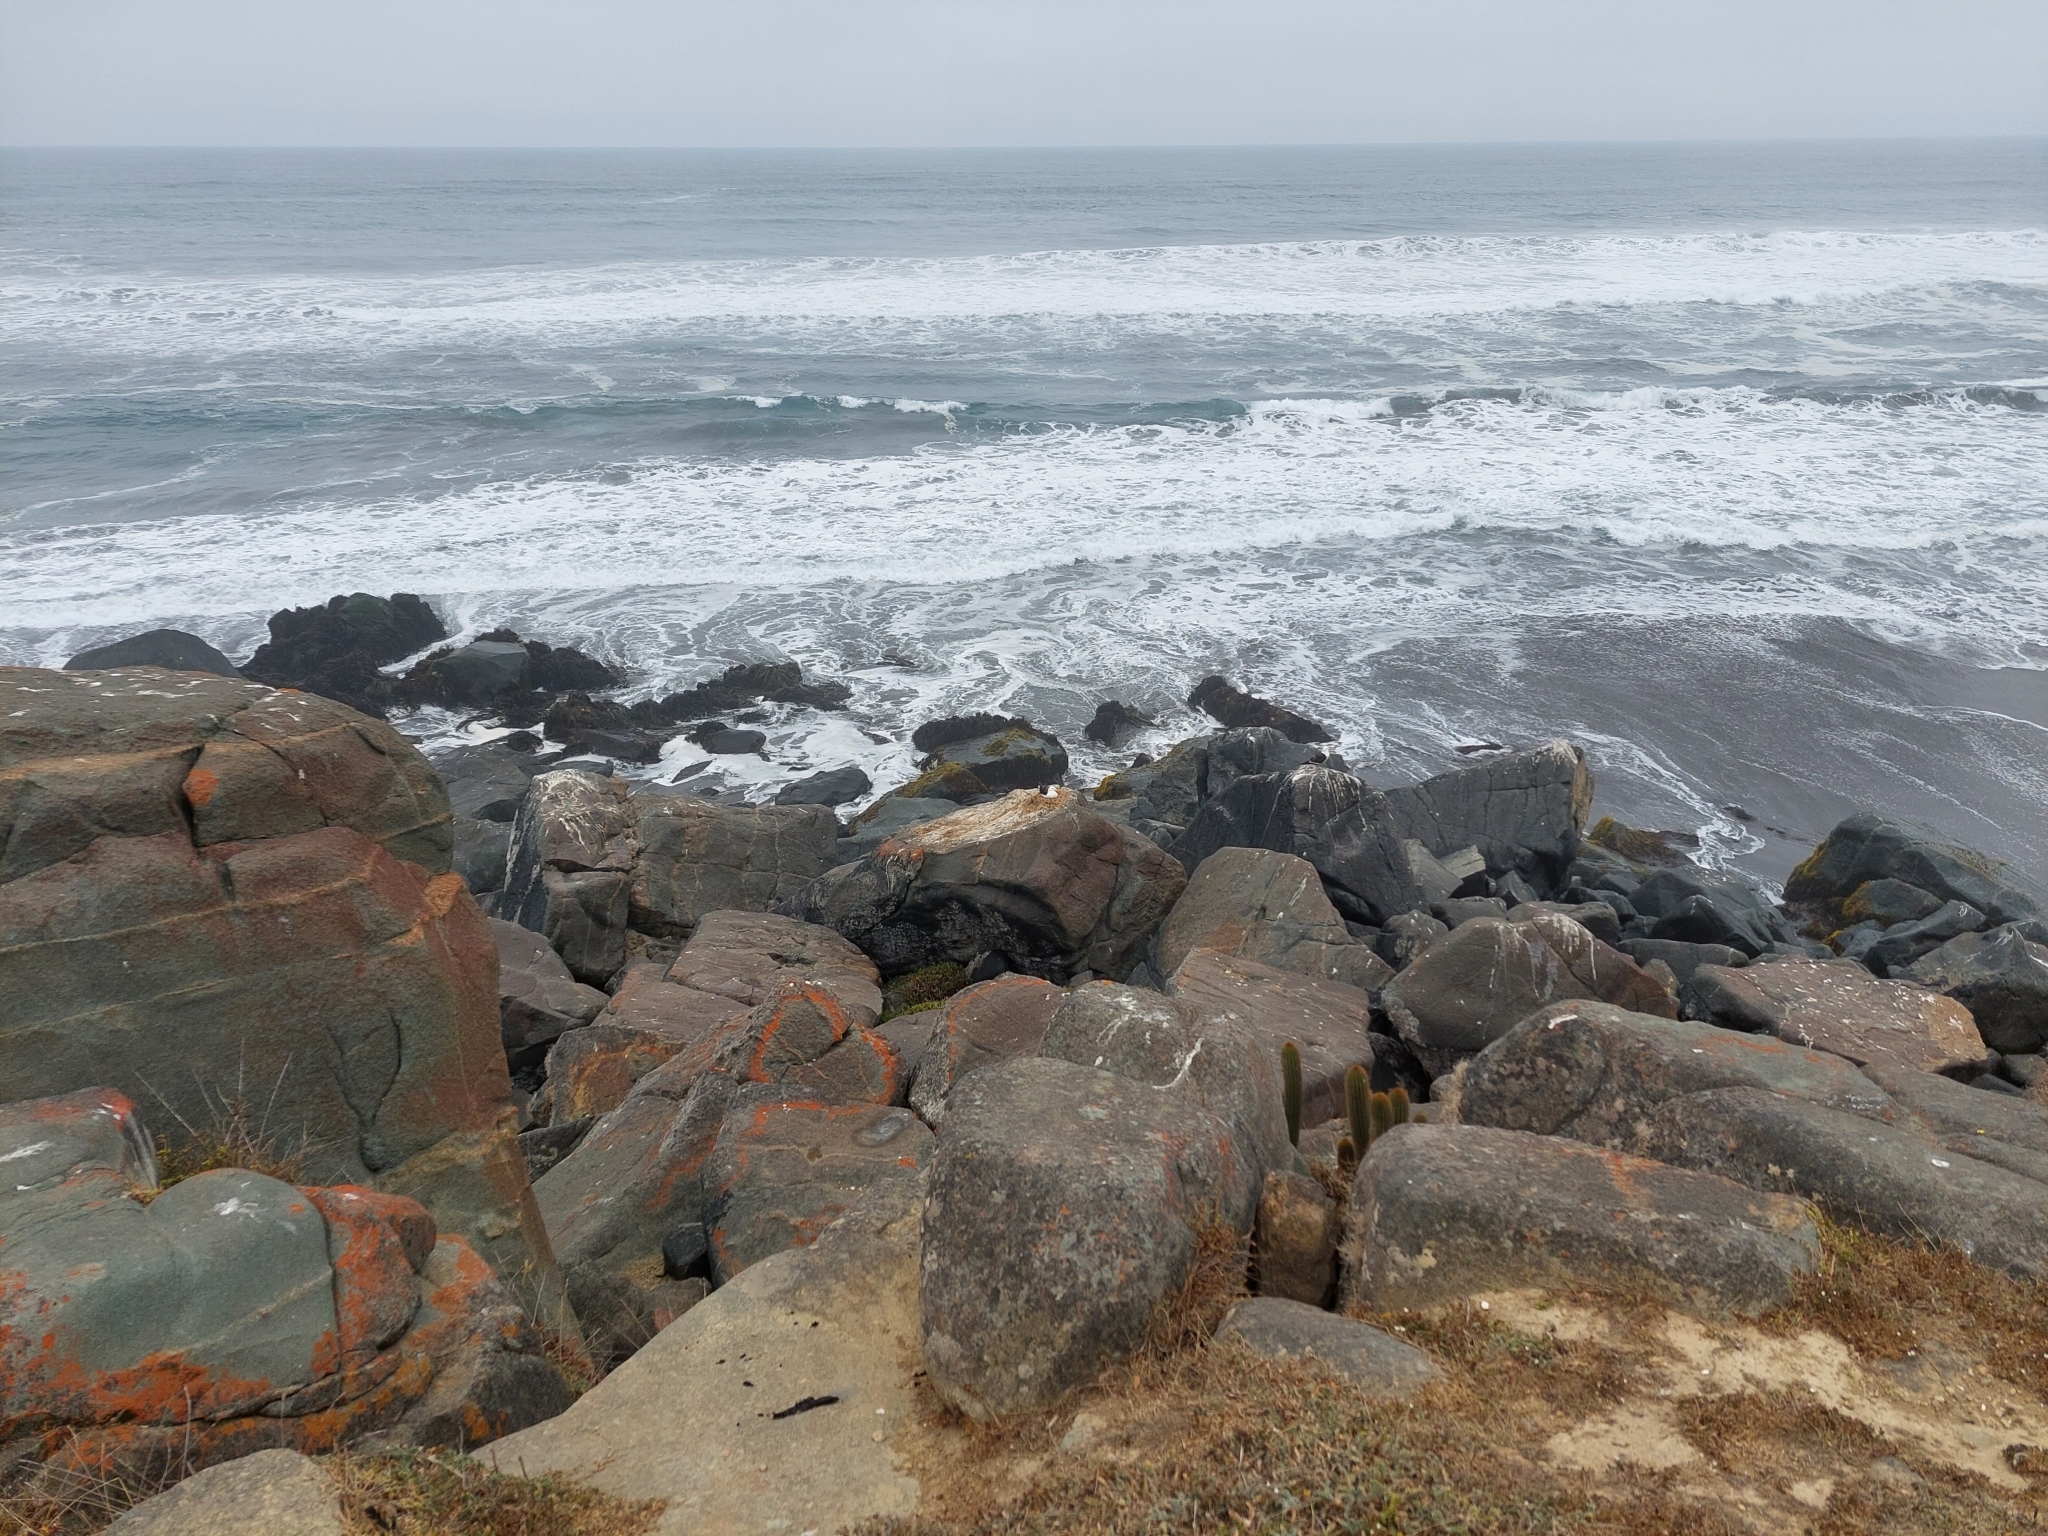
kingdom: Animalia
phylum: Chordata
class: Aves
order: Charadriiformes
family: Laridae
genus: Larus
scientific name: Larus dominicanus
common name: Kelp gull
